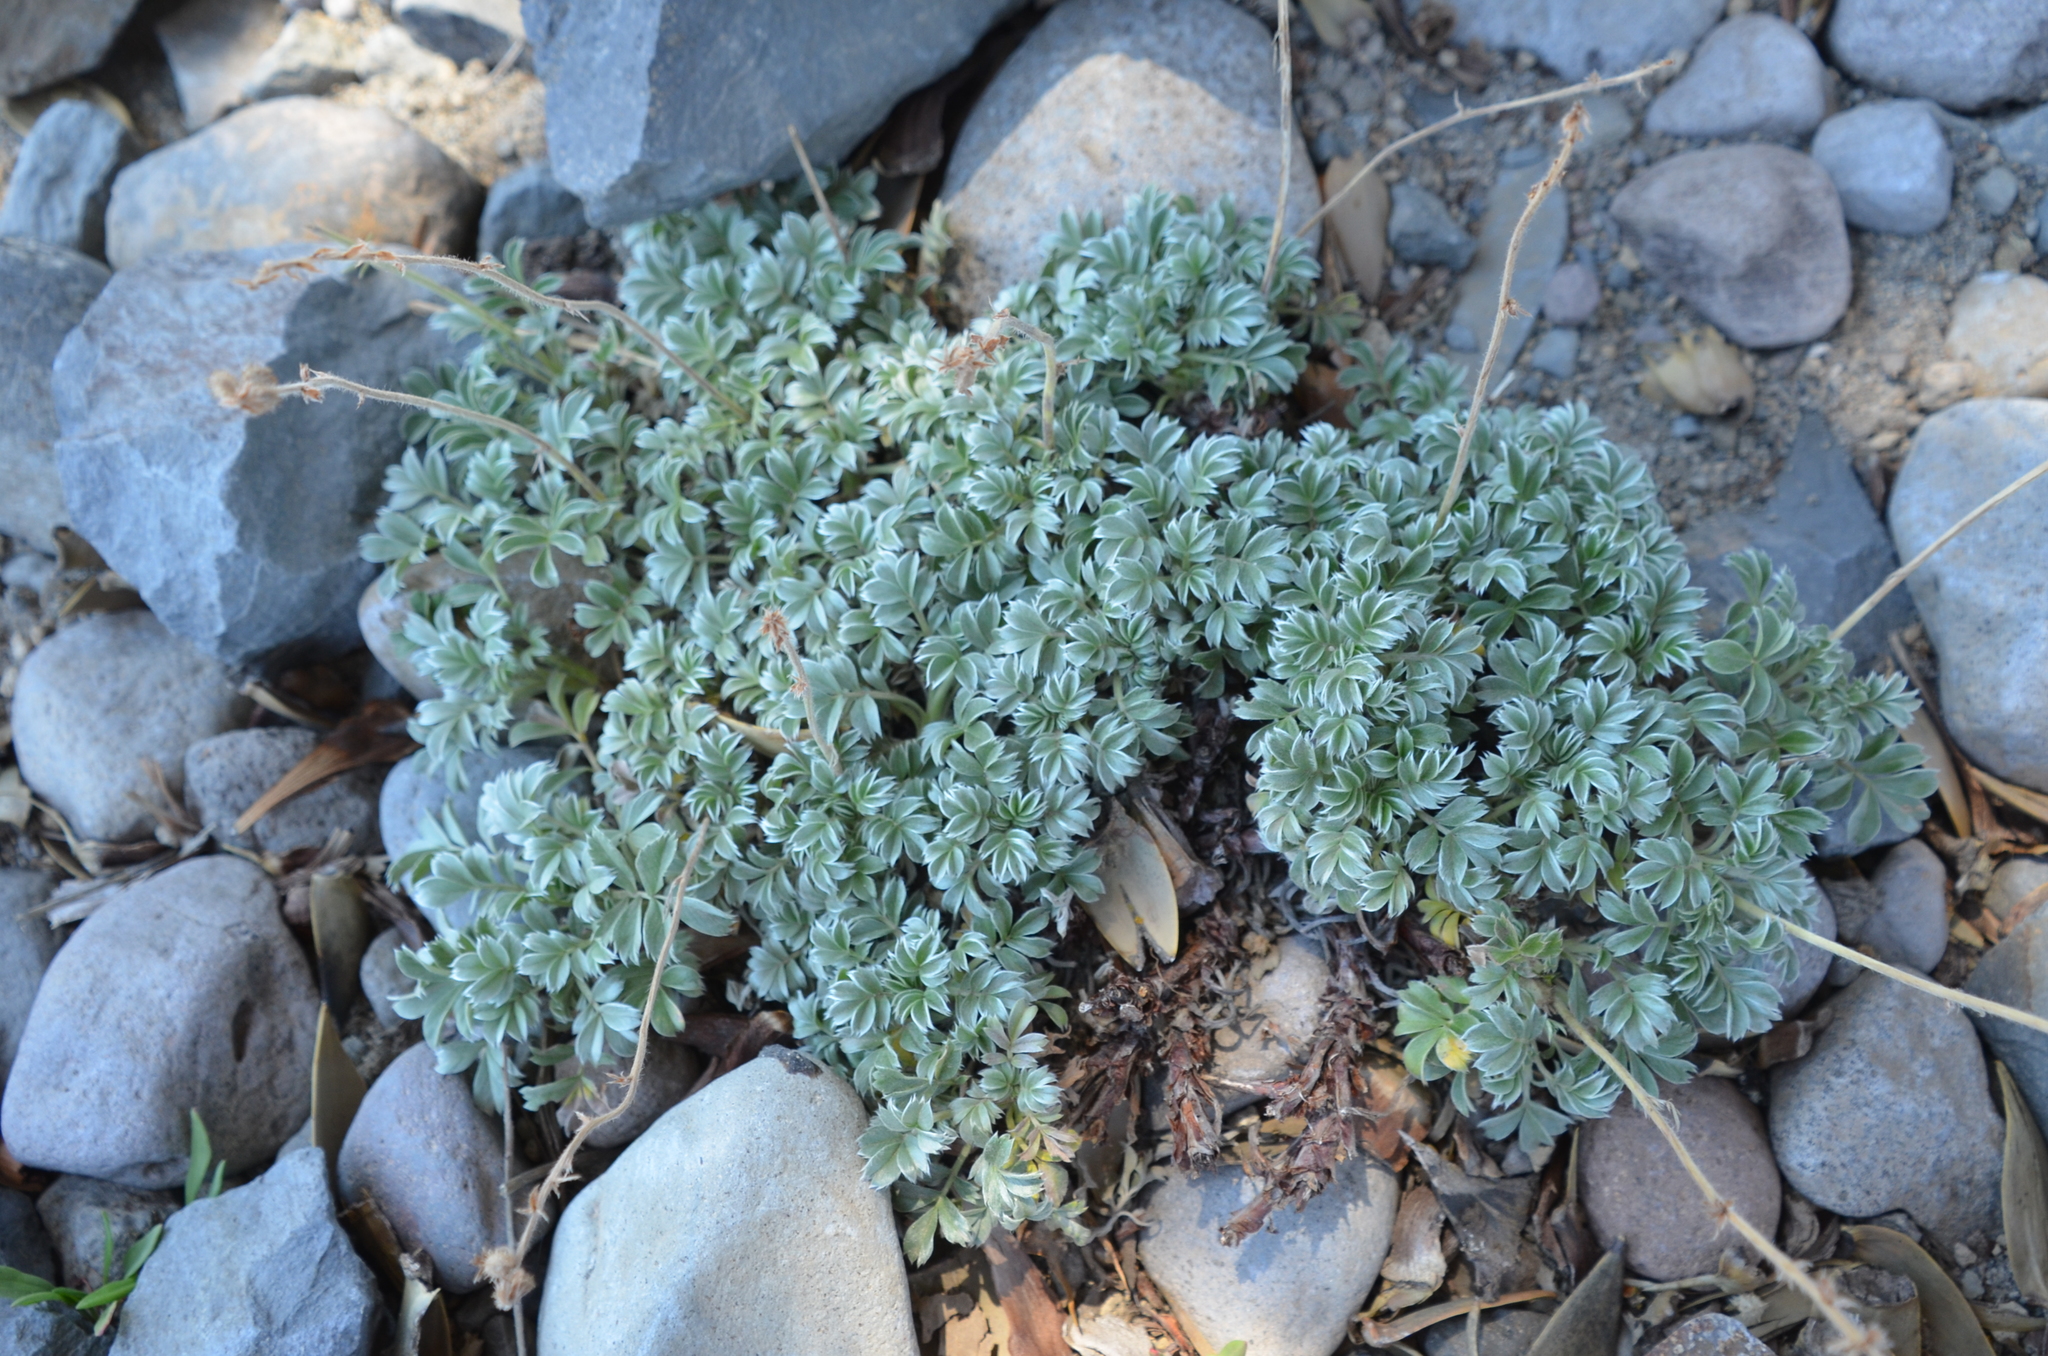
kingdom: Plantae
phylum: Tracheophyta
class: Magnoliopsida
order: Rosales
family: Rosaceae
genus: Acaena
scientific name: Acaena splendens
